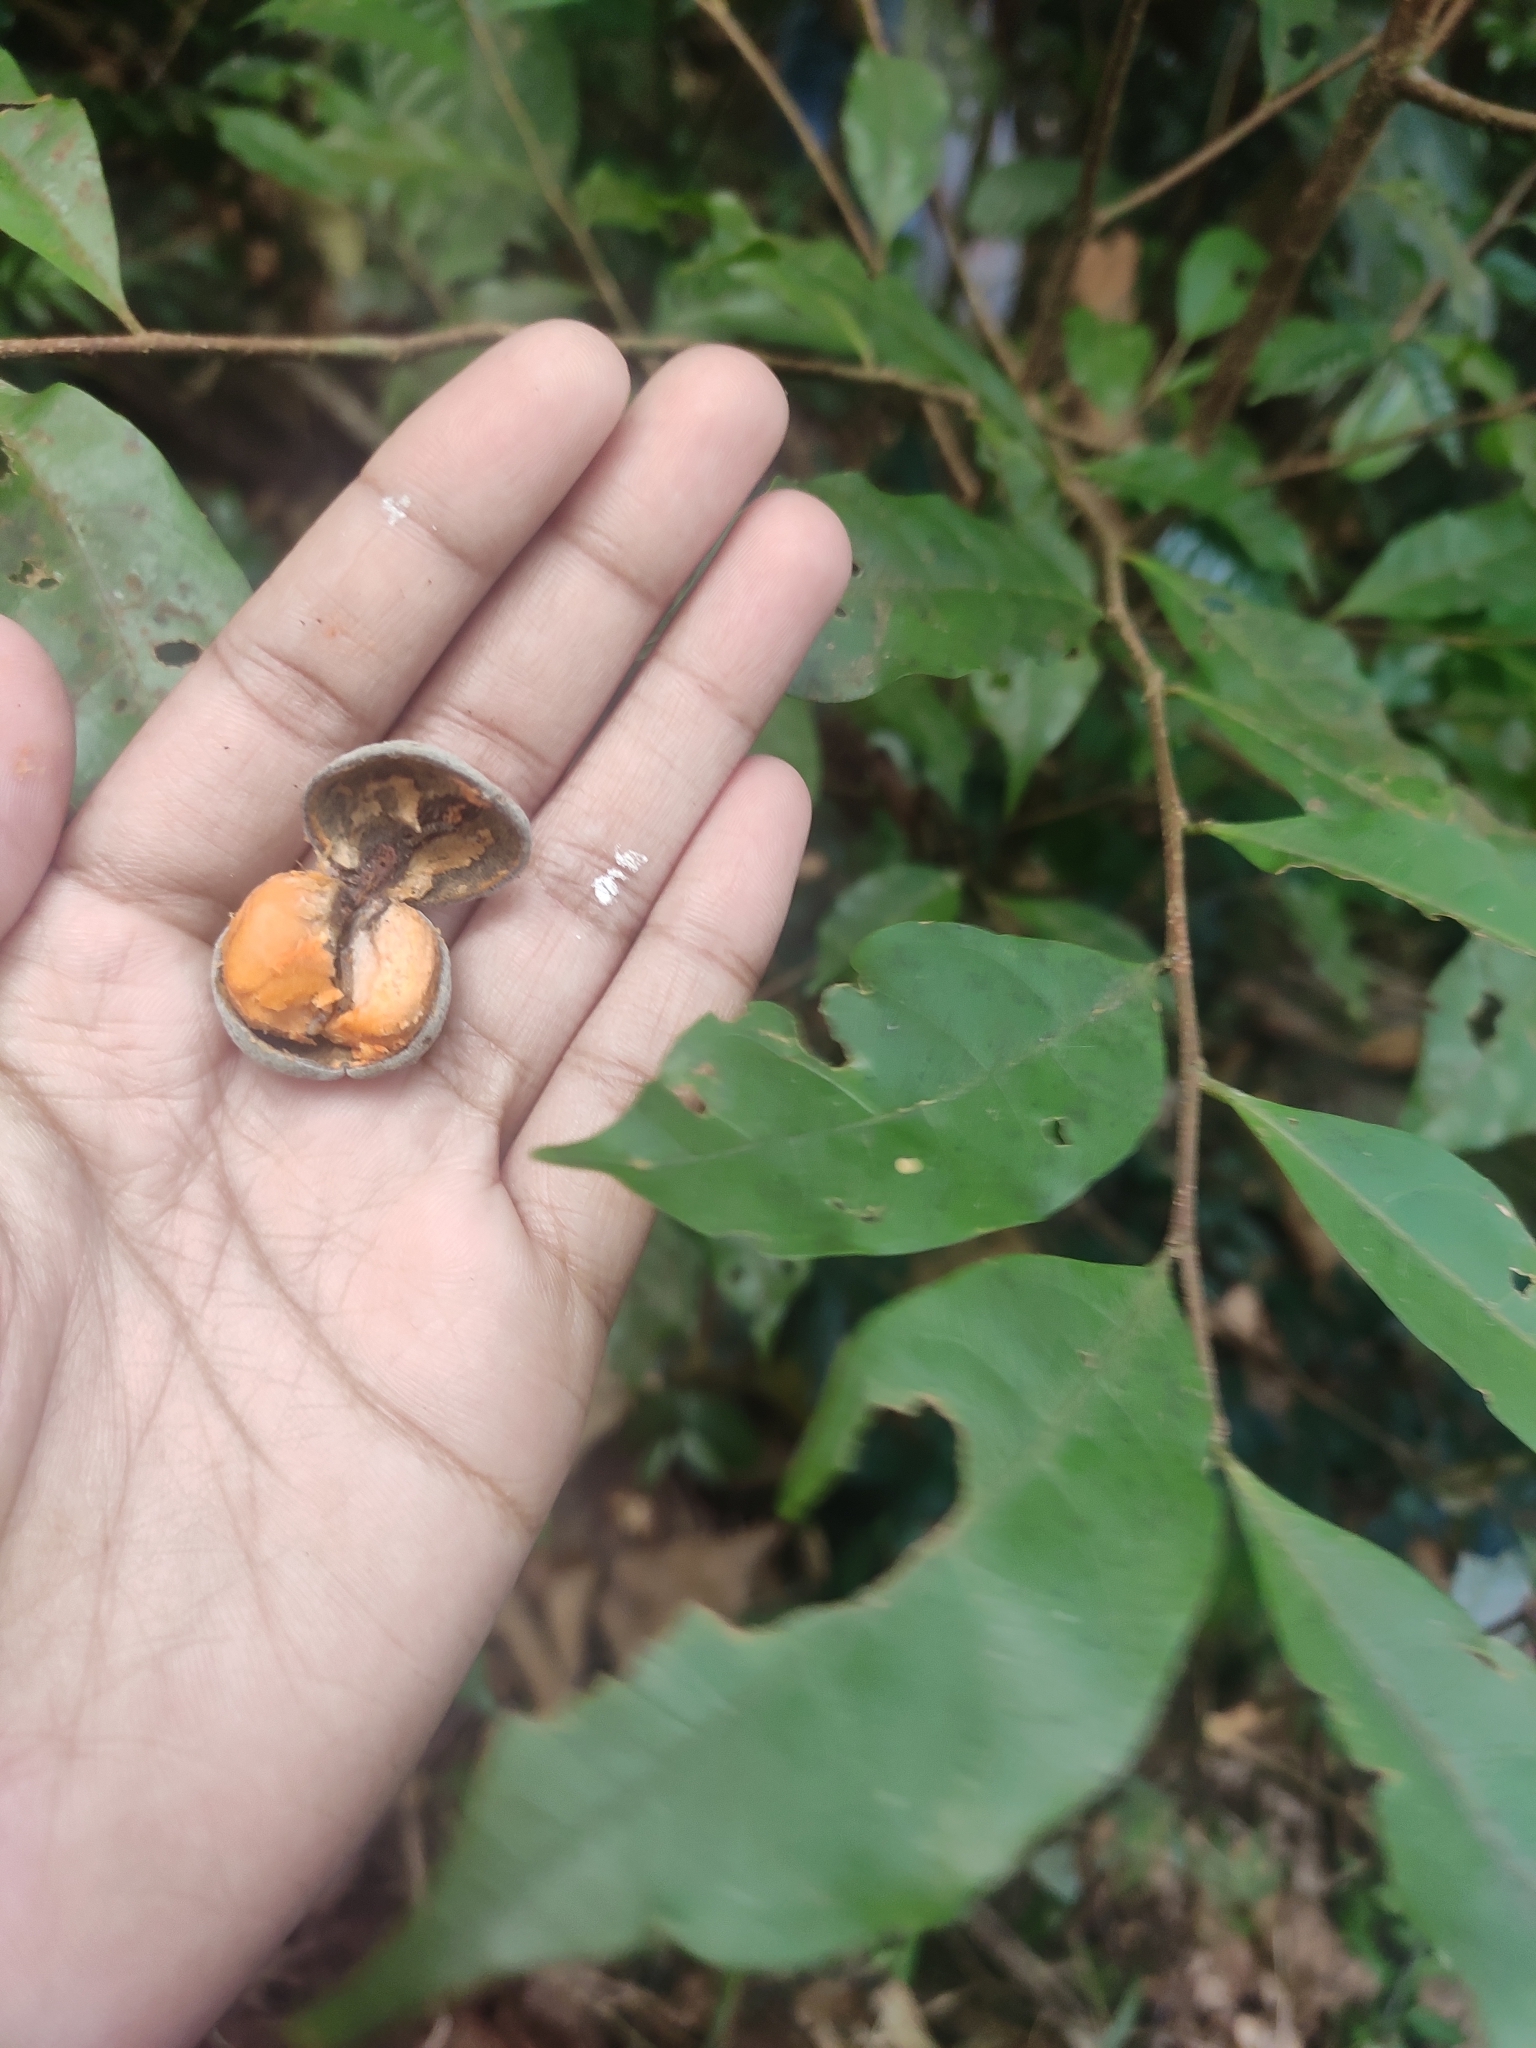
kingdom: Plantae
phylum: Tracheophyta
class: Magnoliopsida
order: Malpighiales
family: Dichapetalaceae
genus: Dichapetalum
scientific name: Dichapetalum gelonioides
